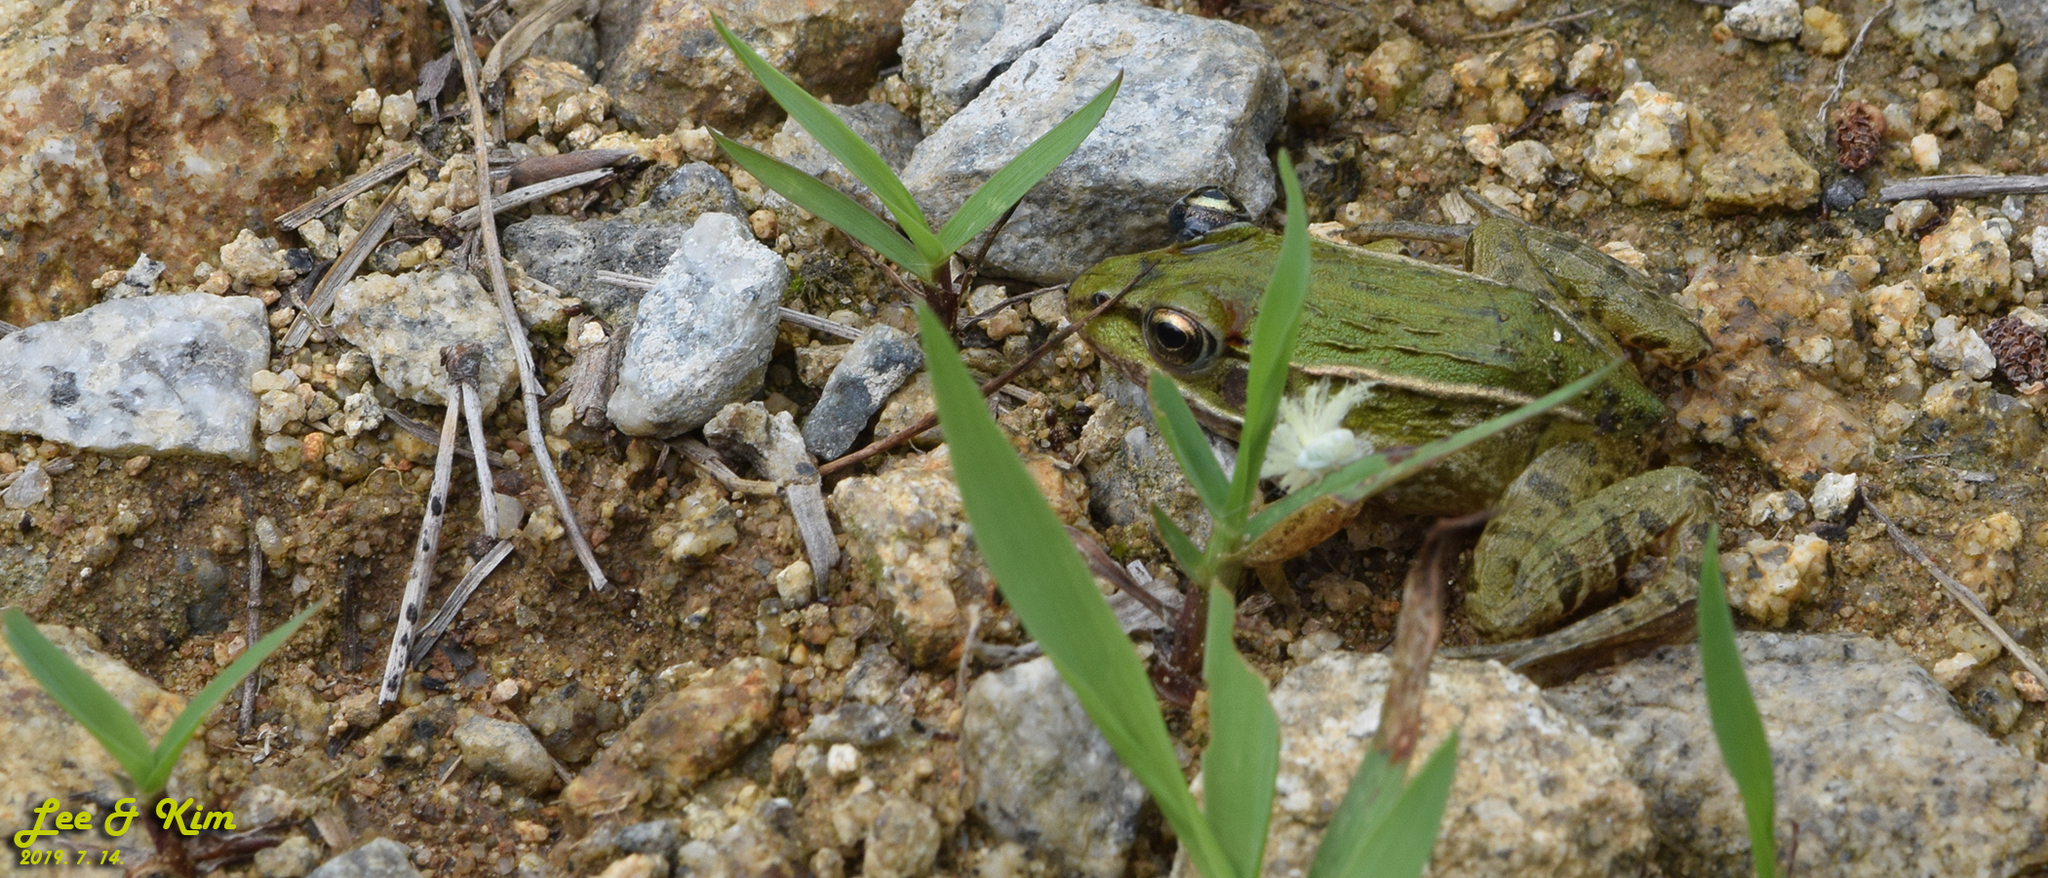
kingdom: Animalia
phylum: Chordata
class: Amphibia
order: Anura
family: Ranidae
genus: Pelophylax
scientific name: Pelophylax nigromaculatus
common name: Black-spotted pond frog
